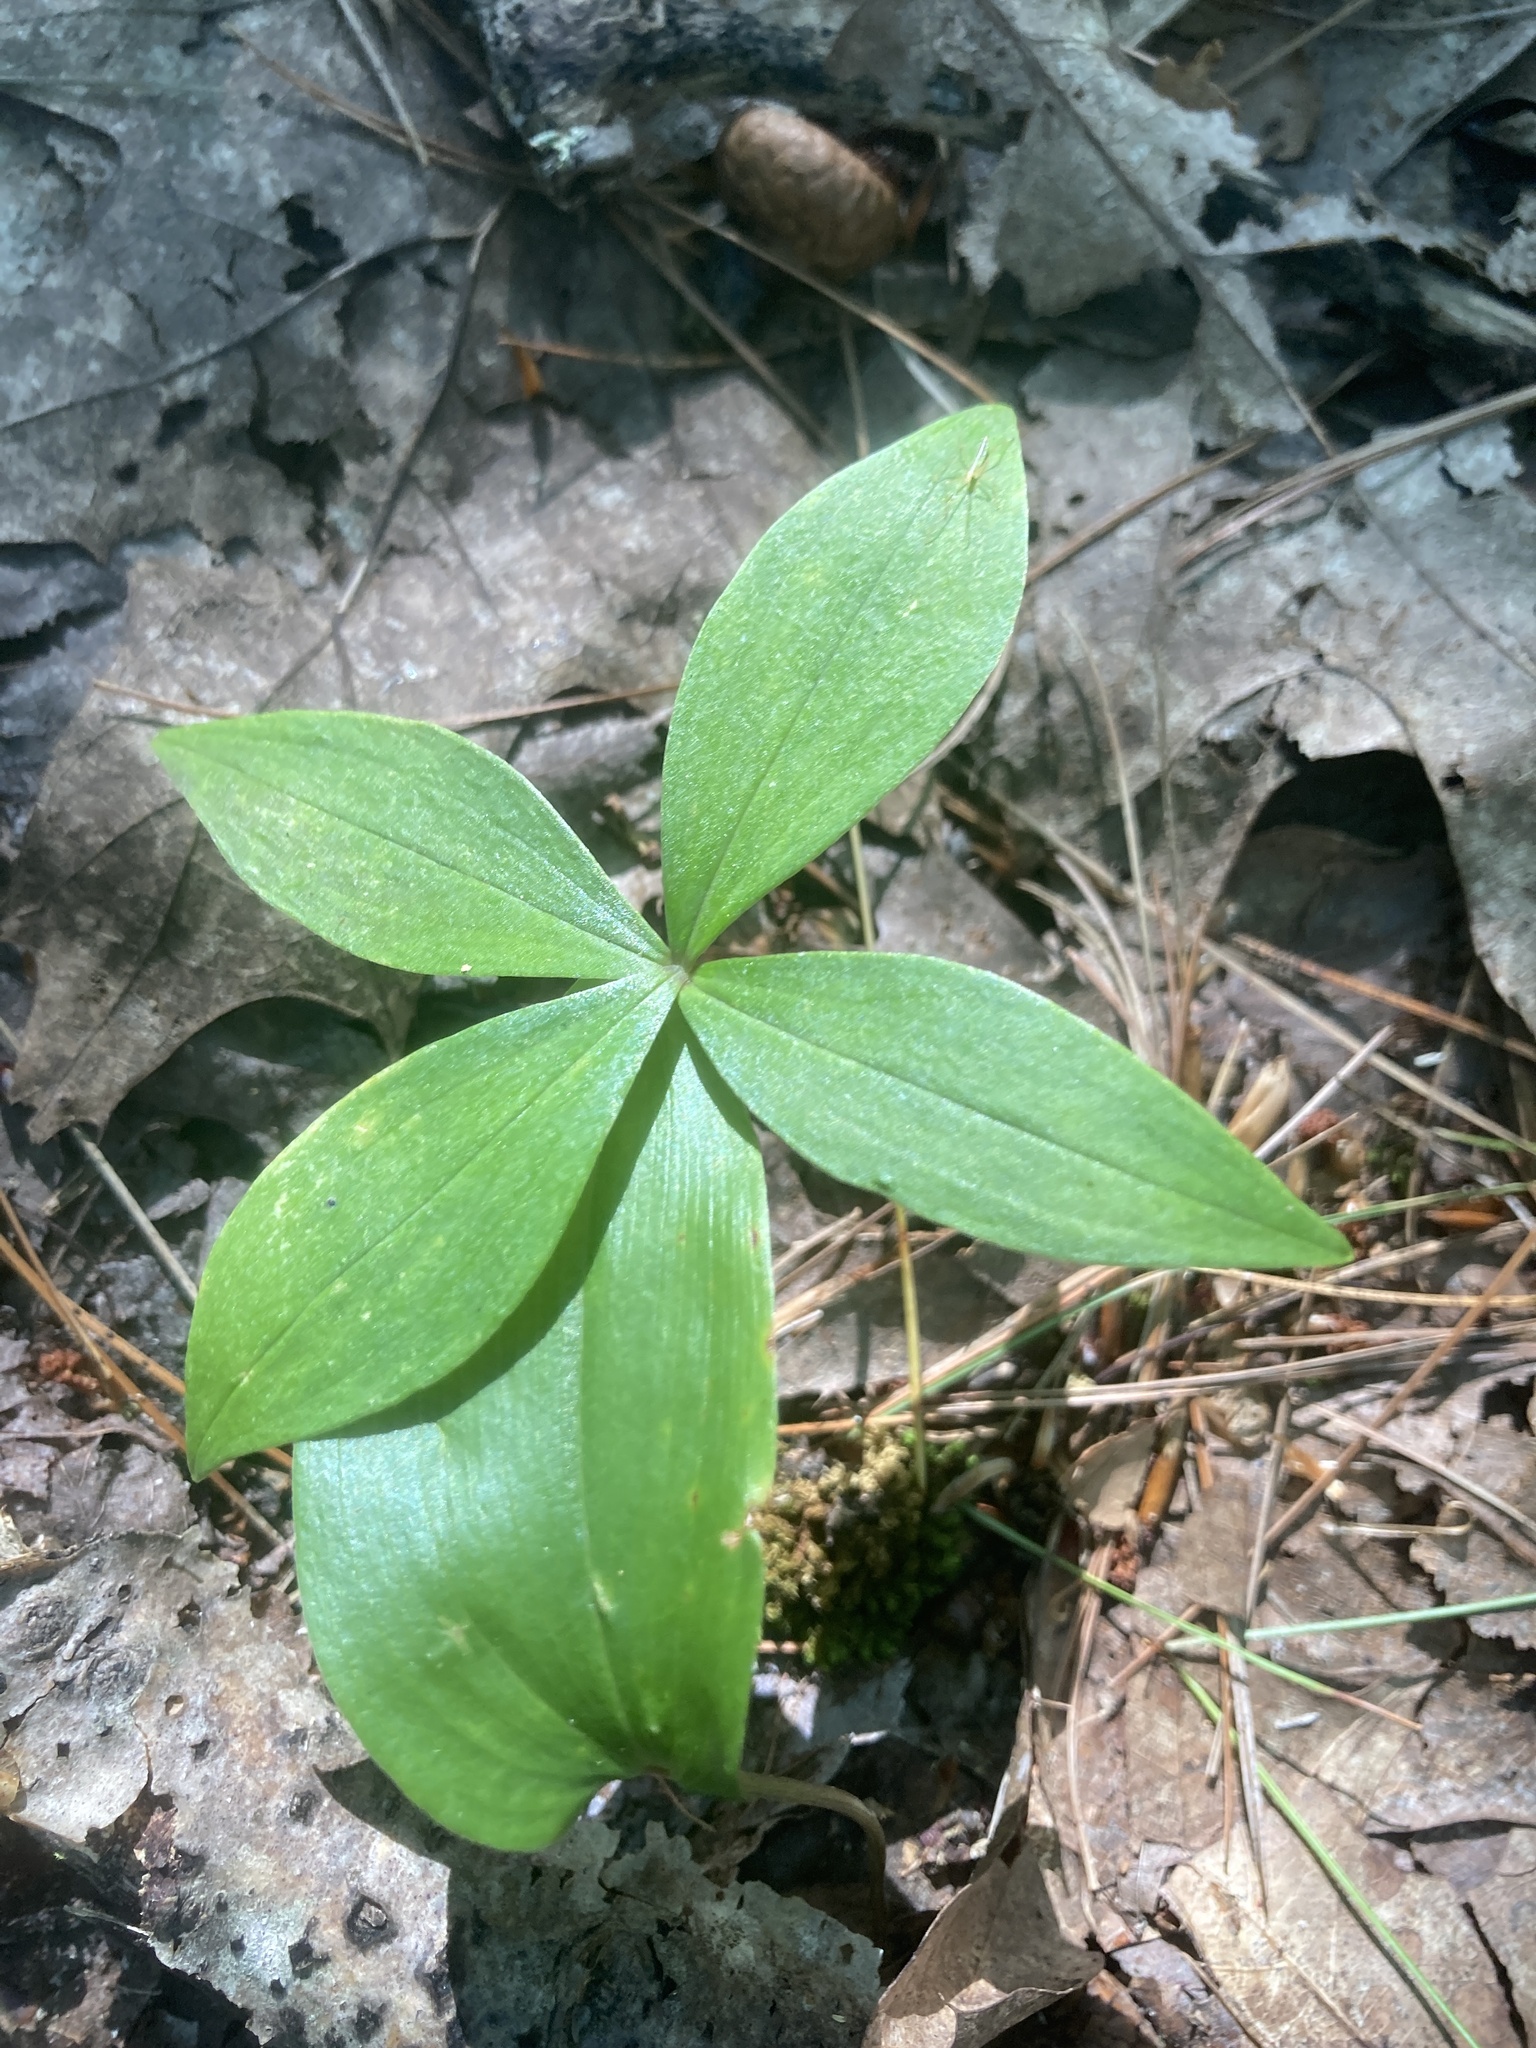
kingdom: Plantae
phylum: Tracheophyta
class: Liliopsida
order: Liliales
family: Liliaceae
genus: Medeola
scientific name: Medeola virginiana
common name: Indian cucumber-root
